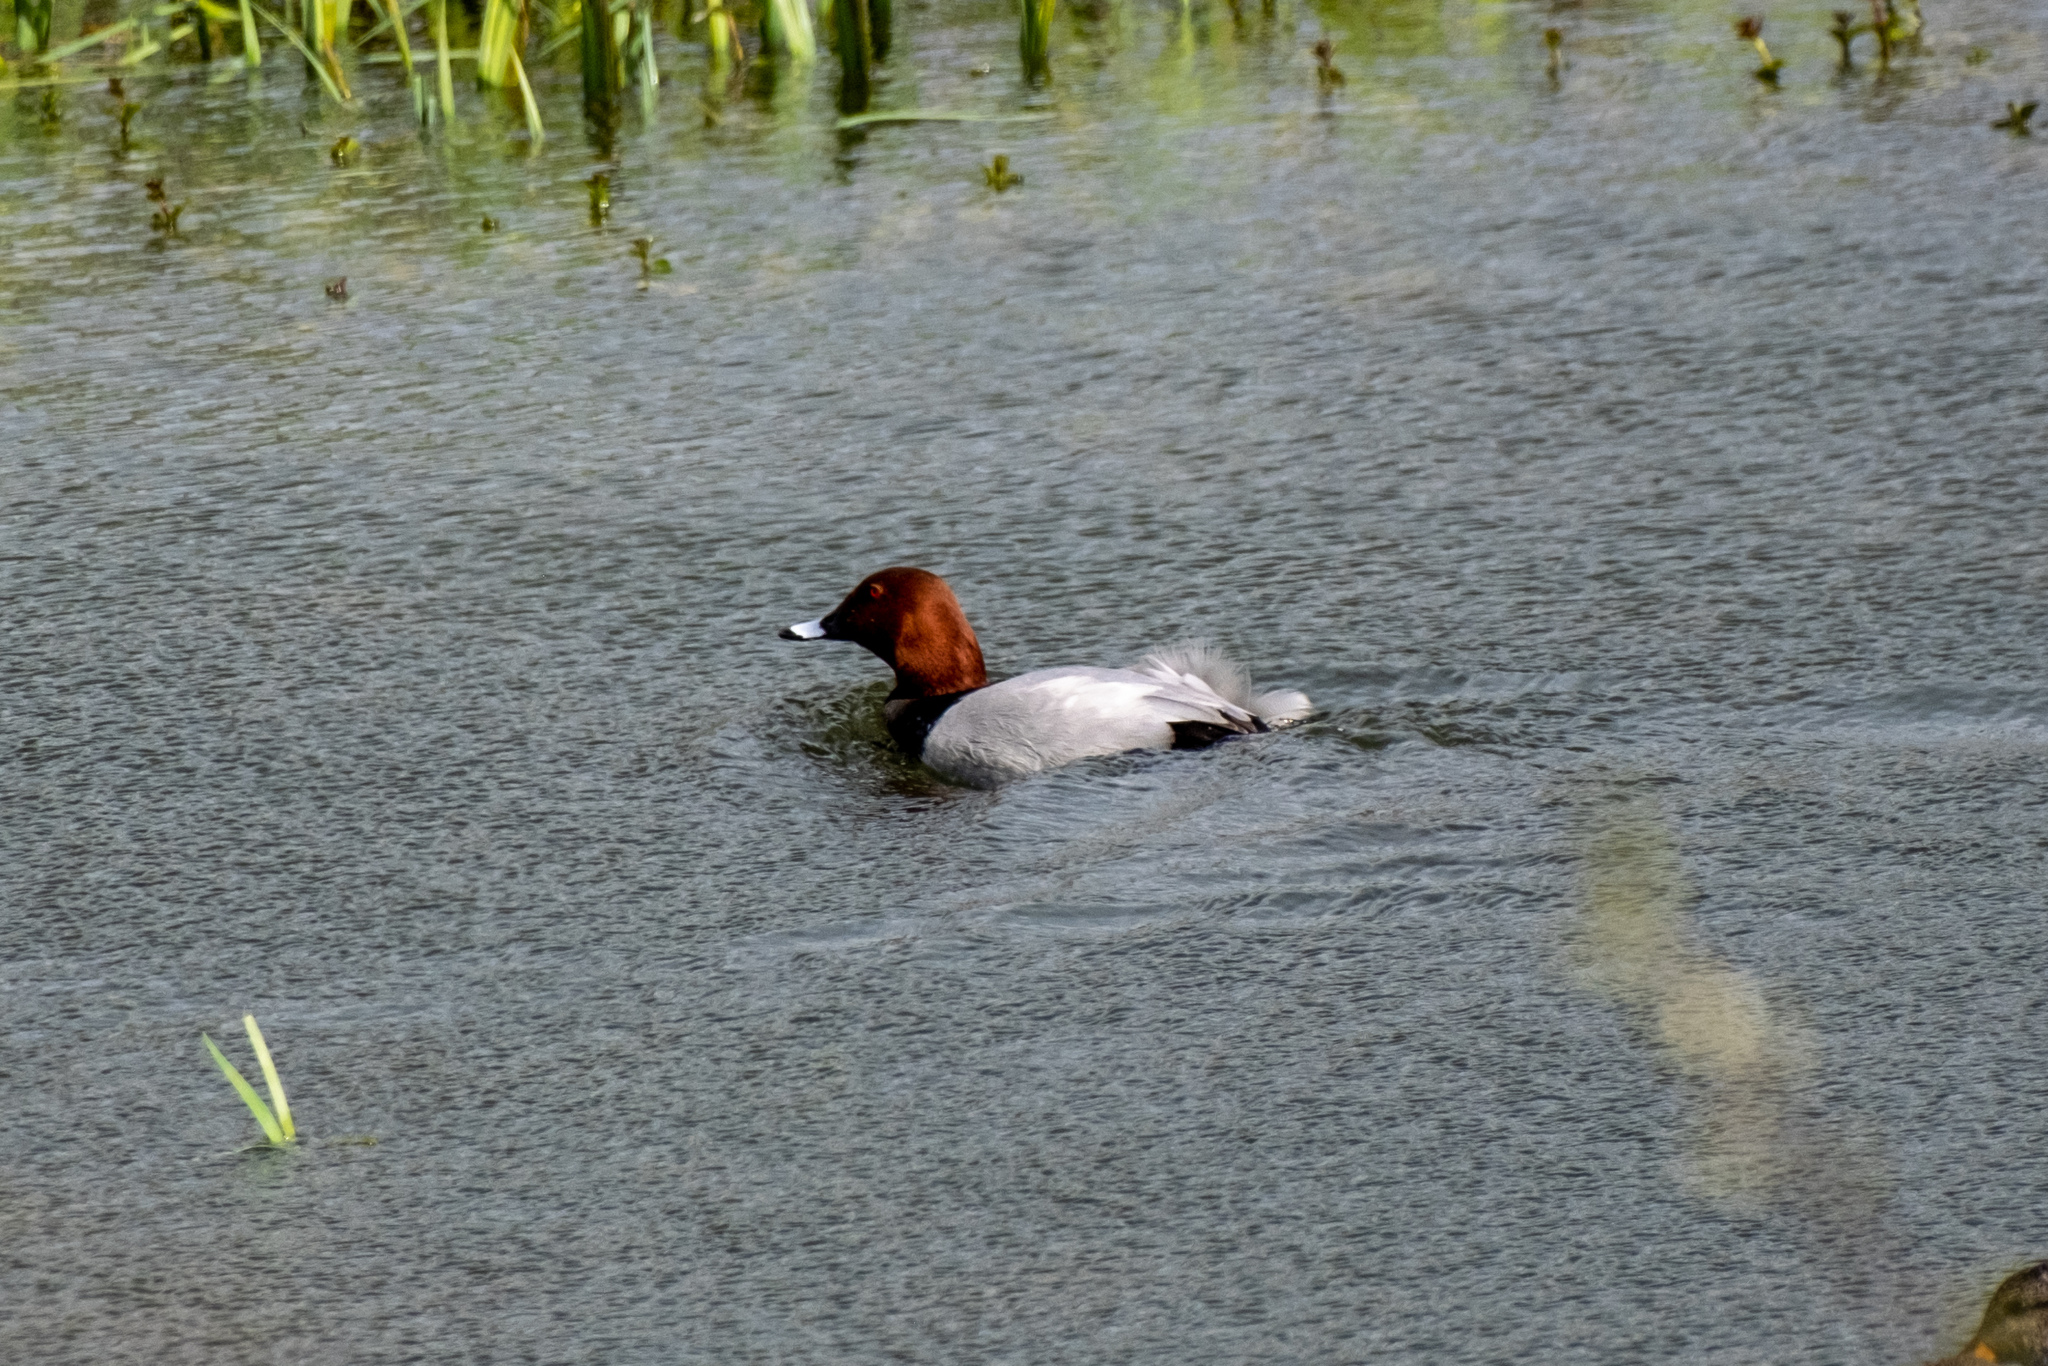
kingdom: Animalia
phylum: Chordata
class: Aves
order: Anseriformes
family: Anatidae
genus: Aythya
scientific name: Aythya ferina
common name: Common pochard
